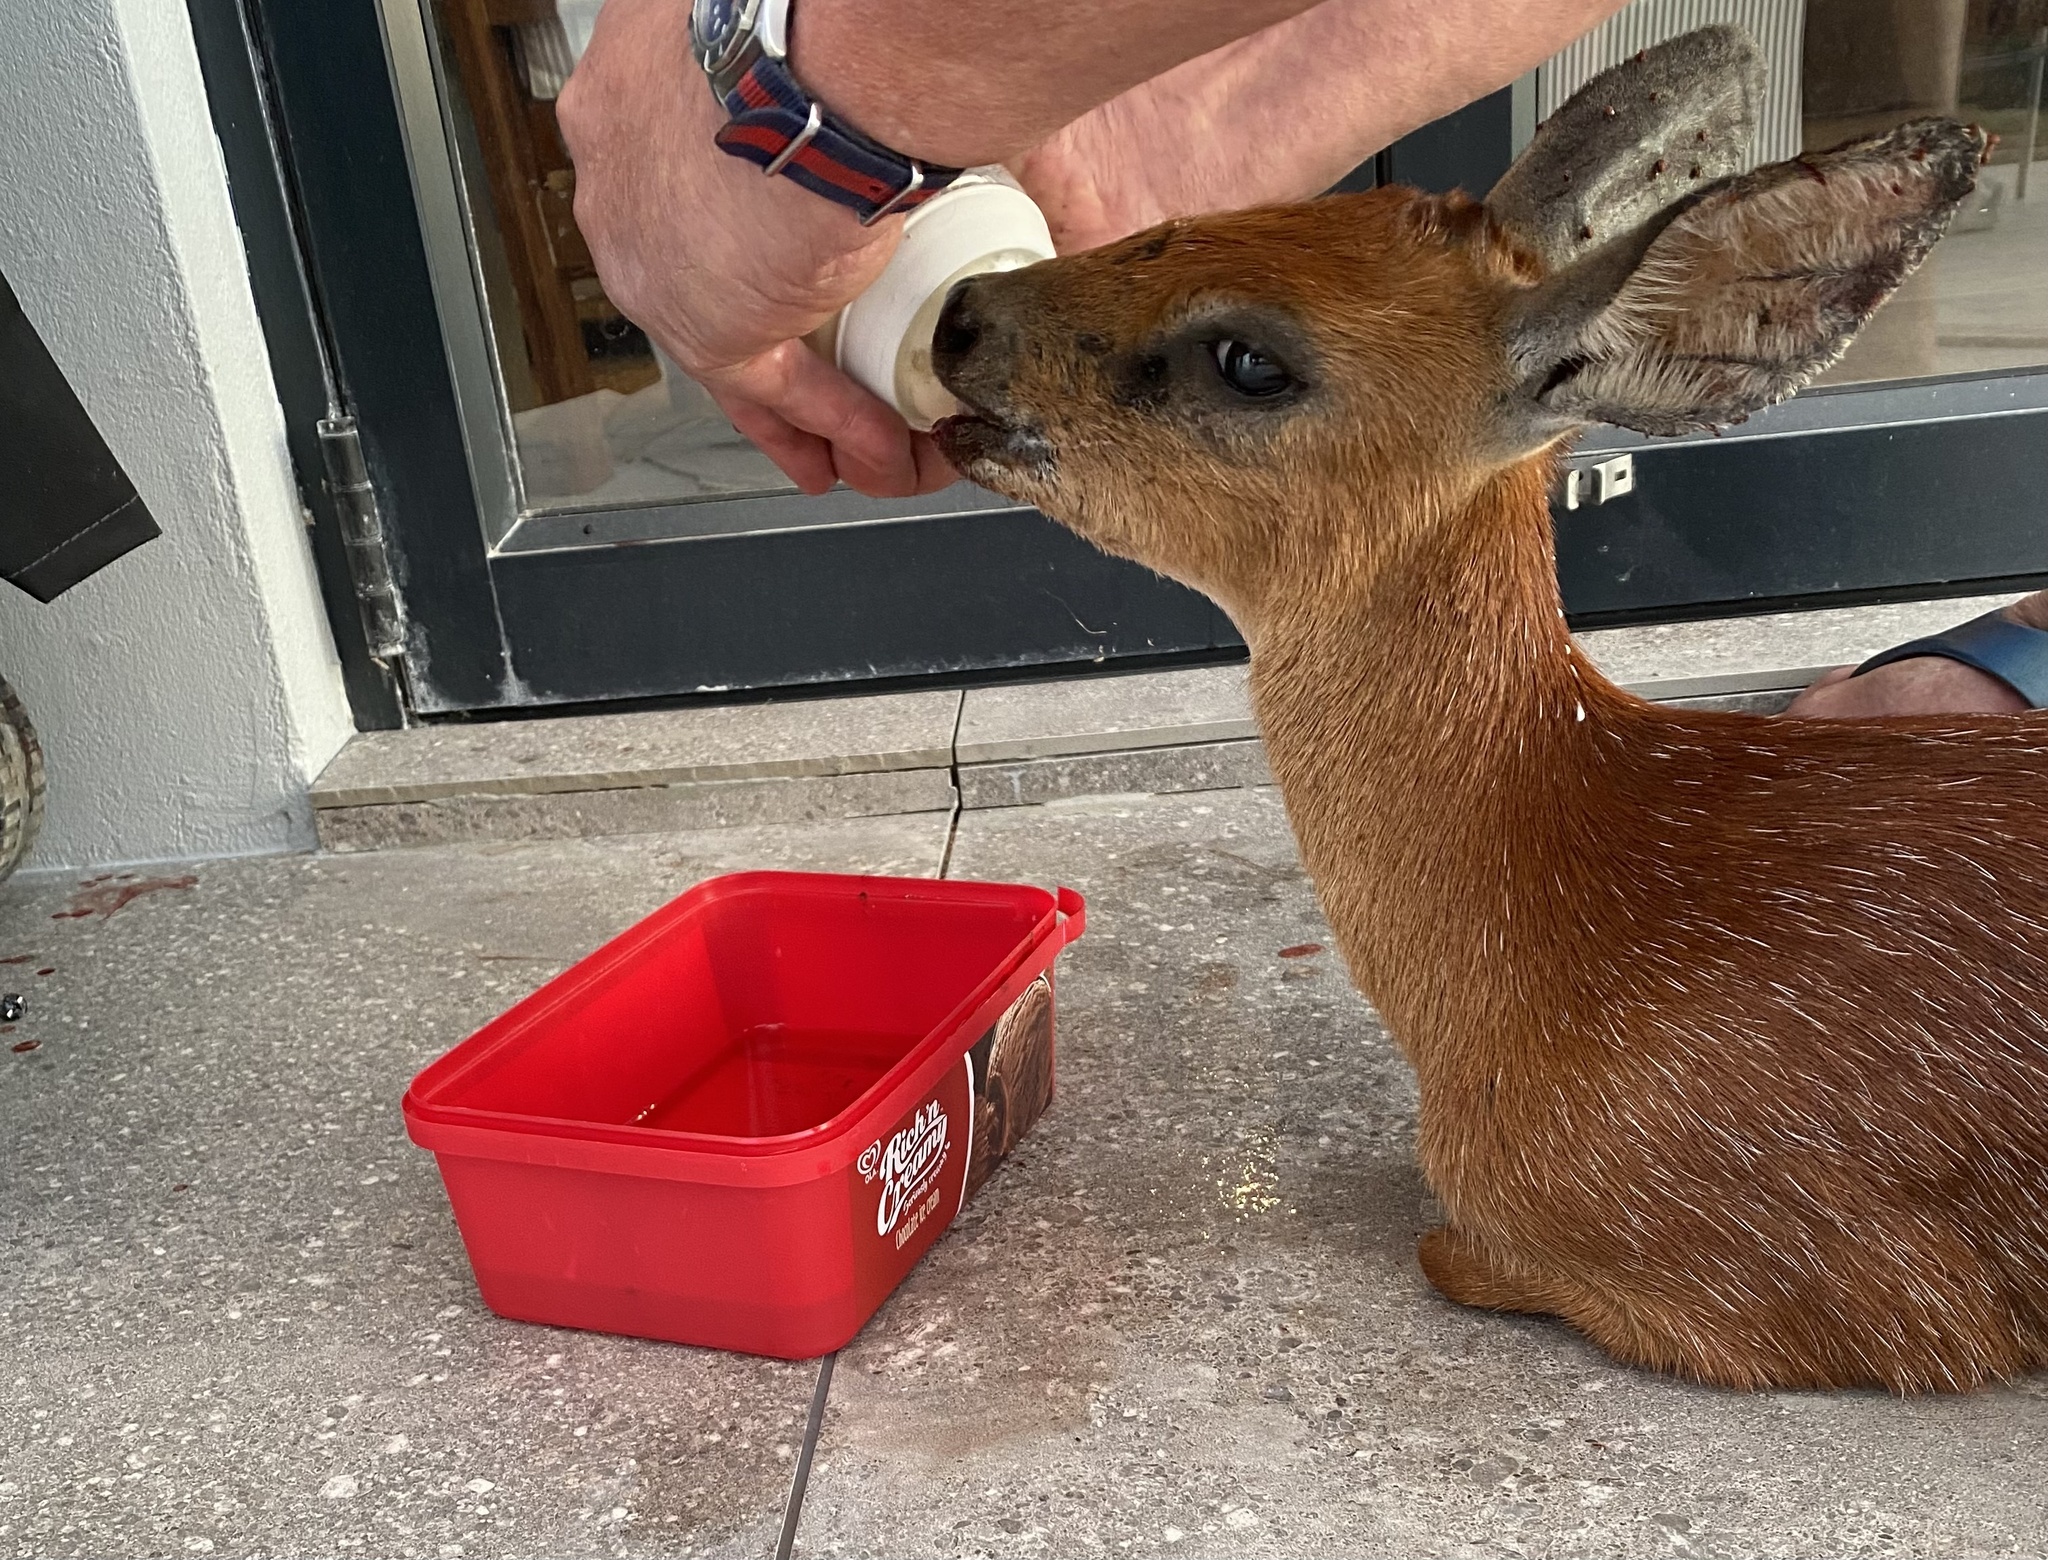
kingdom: Animalia
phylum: Chordata
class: Mammalia
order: Artiodactyla
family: Bovidae
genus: Raphicerus
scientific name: Raphicerus melanotis
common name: Cape grysbok
